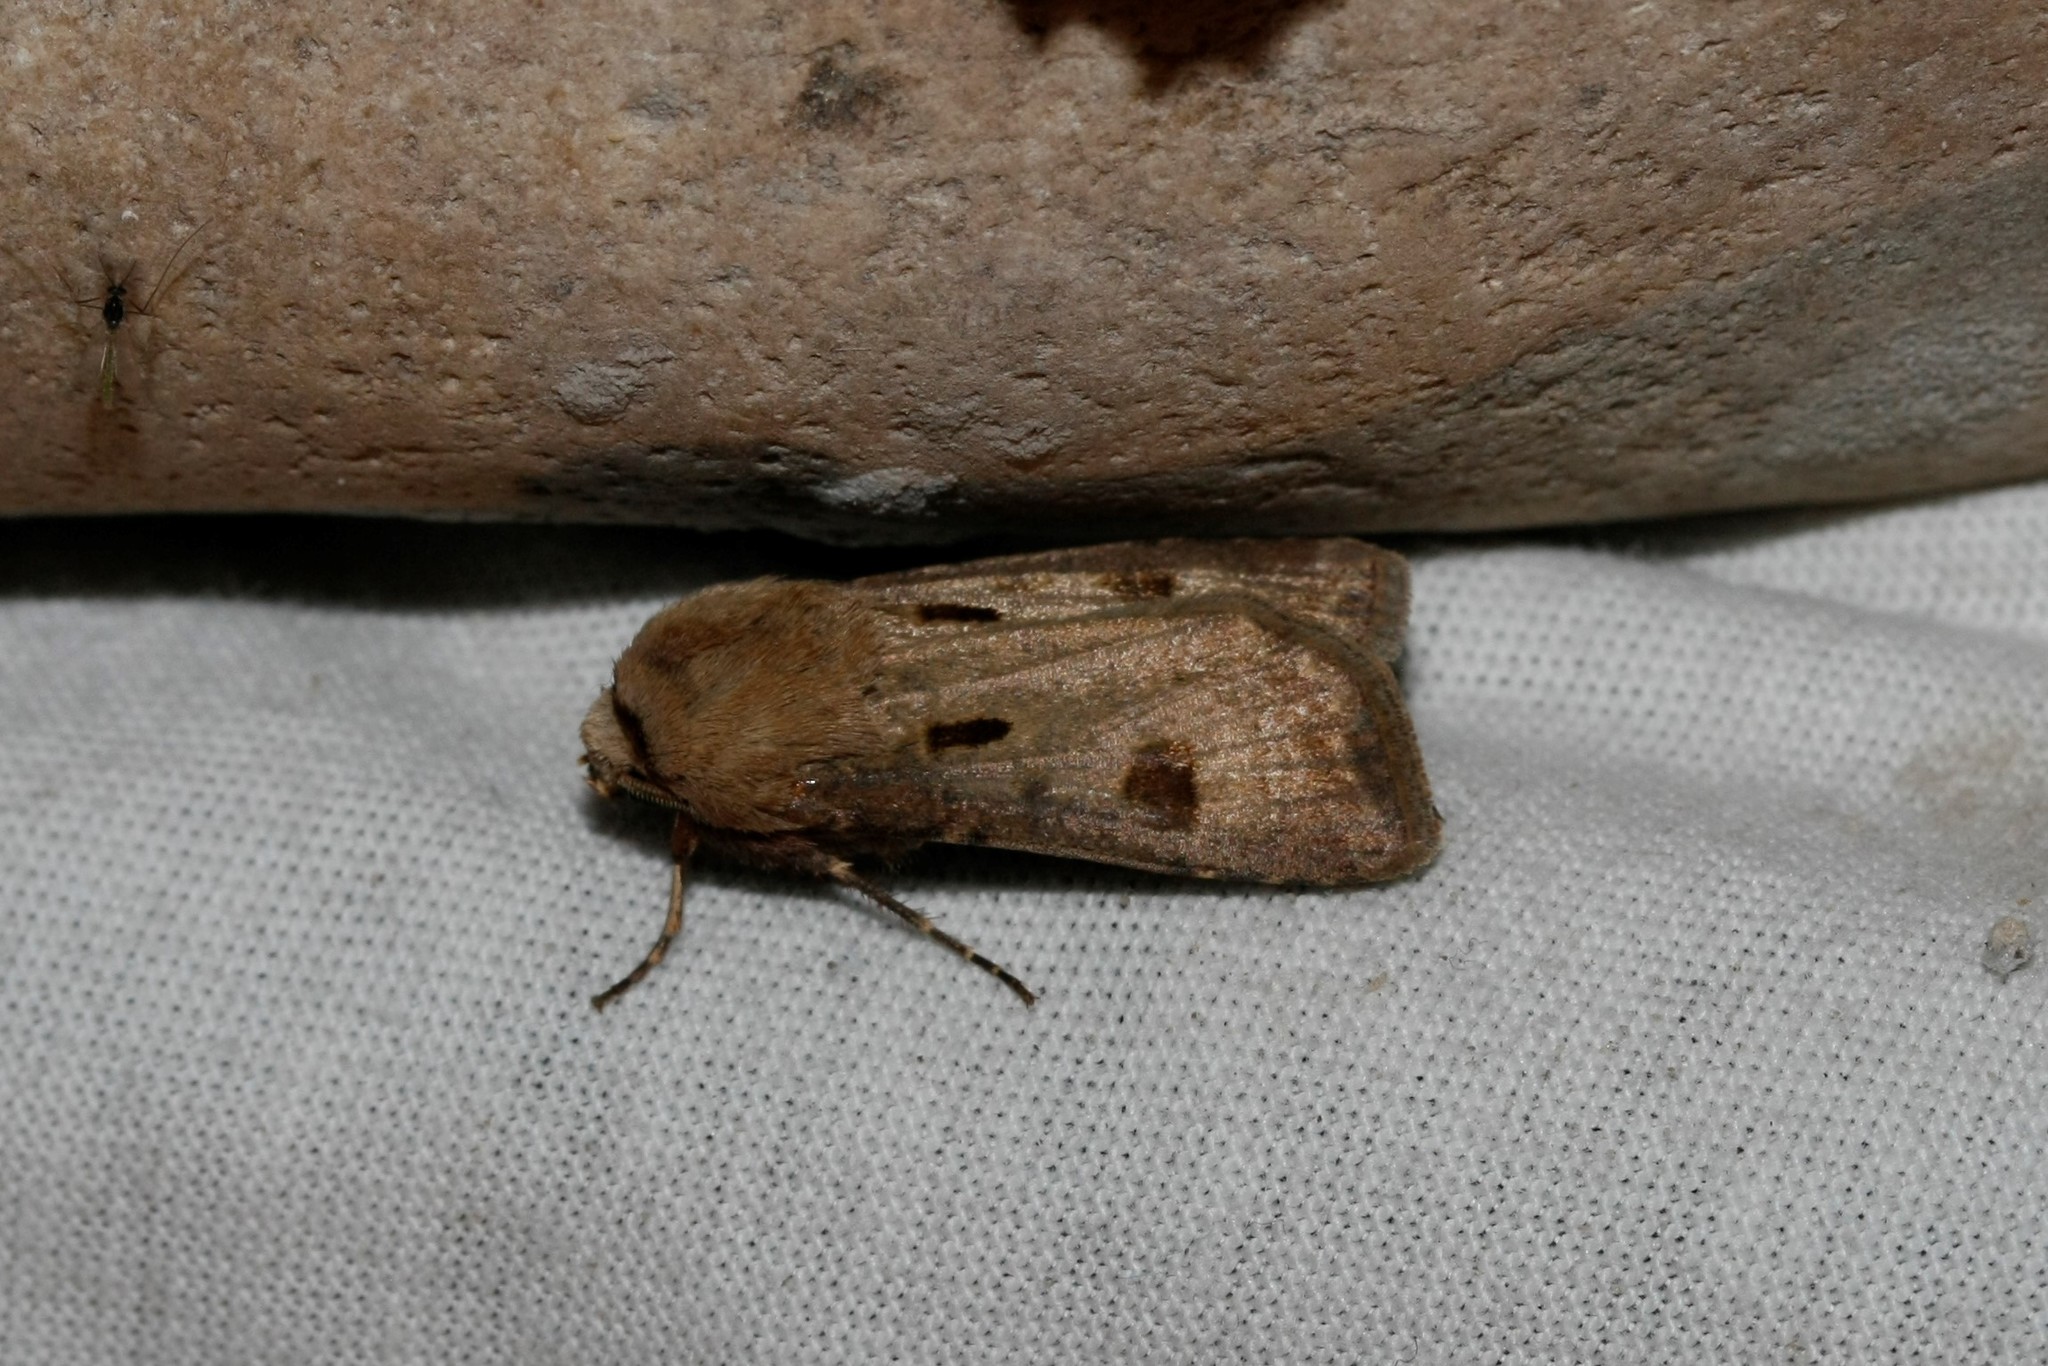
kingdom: Animalia
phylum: Arthropoda
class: Insecta
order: Lepidoptera
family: Noctuidae
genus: Agrotis
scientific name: Agrotis exclamationis
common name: Heart and dart
